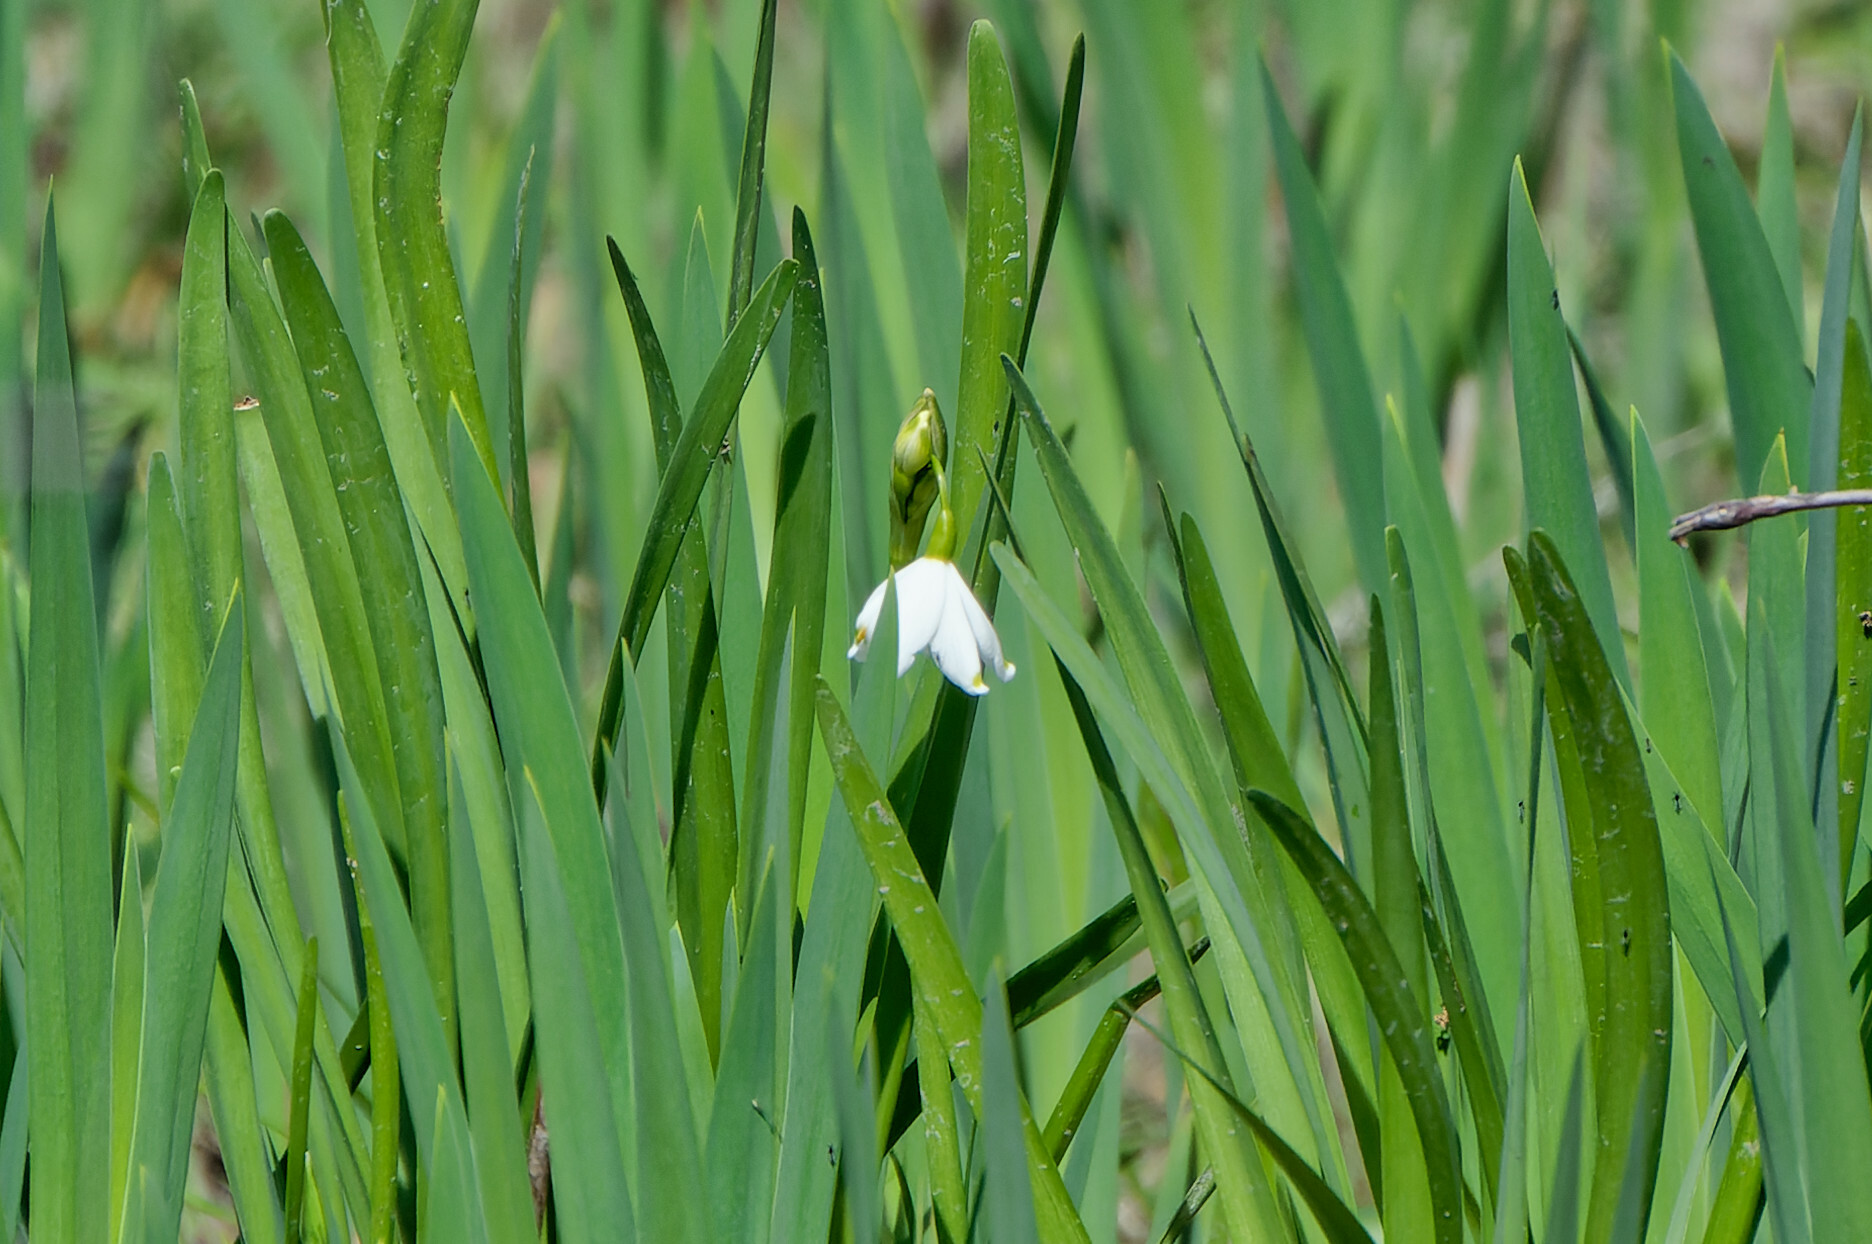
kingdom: Plantae
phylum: Tracheophyta
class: Liliopsida
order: Asparagales
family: Amaryllidaceae
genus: Leucojum
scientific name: Leucojum aestivum
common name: Summer snowflake
